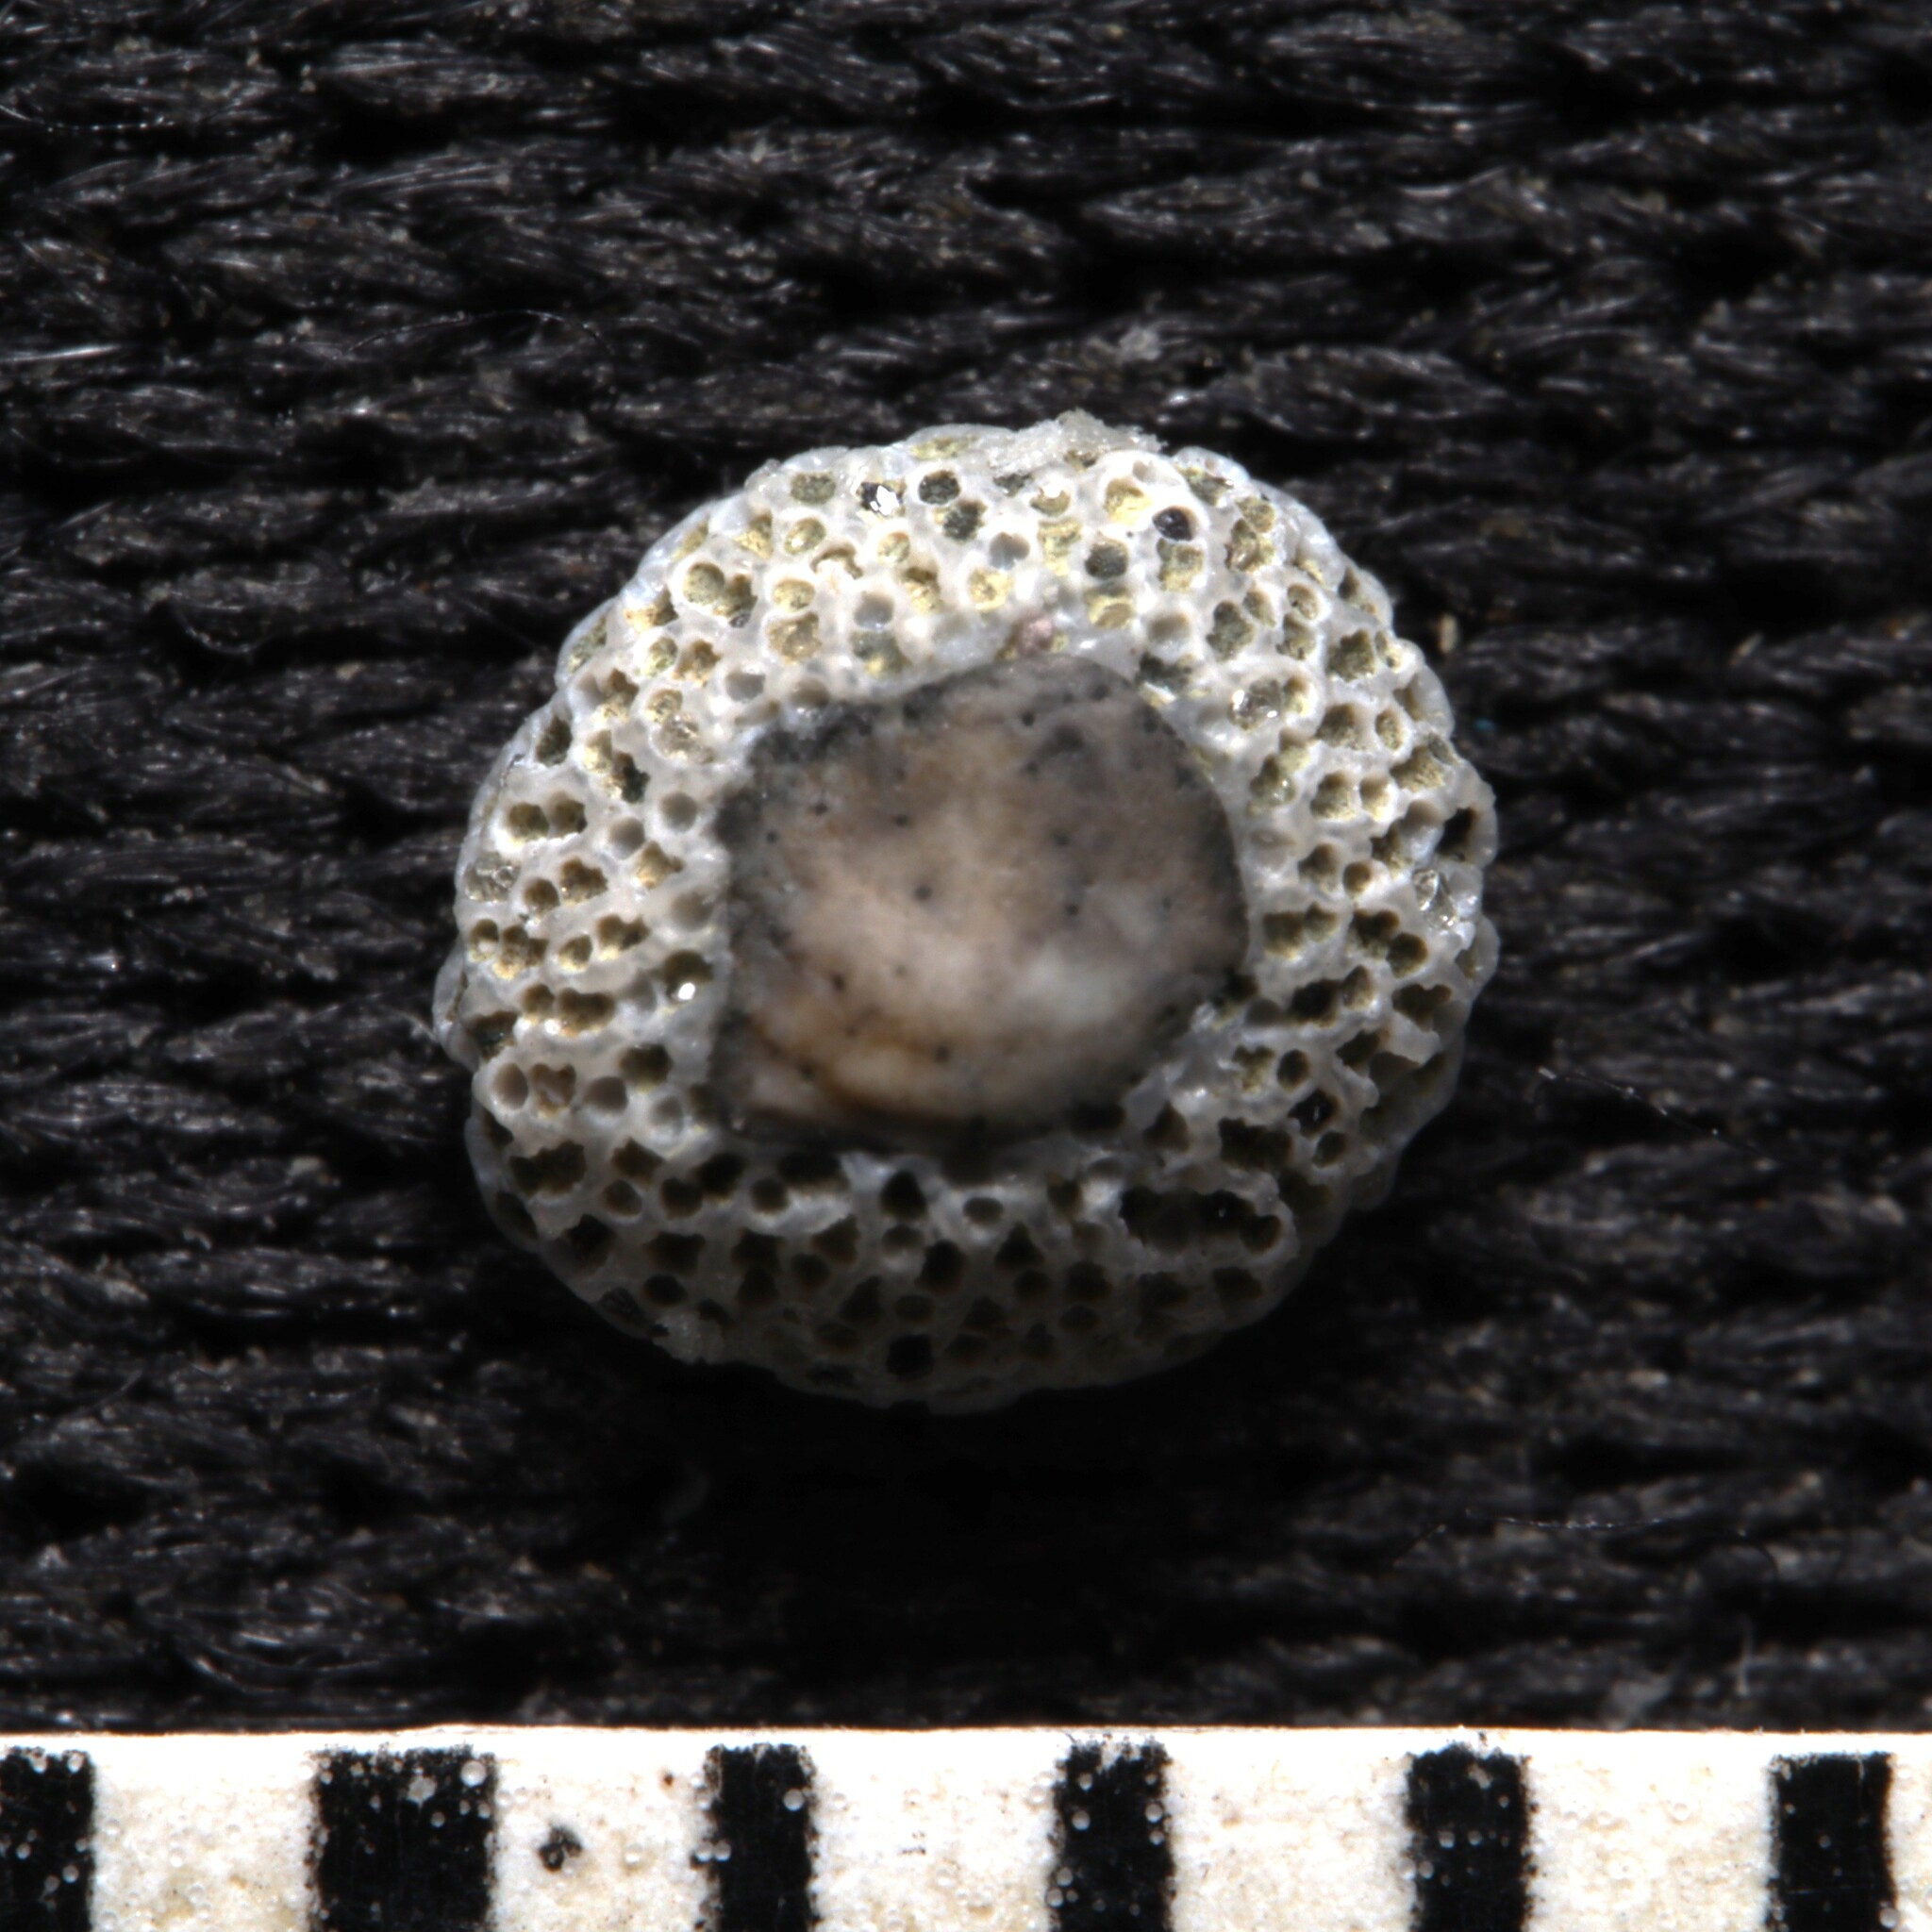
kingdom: Animalia
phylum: Bryozoa
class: Gymnolaemata
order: Cheilostomatida
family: Cupuladriidae
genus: Discoporella
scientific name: Discoporella umbellata
